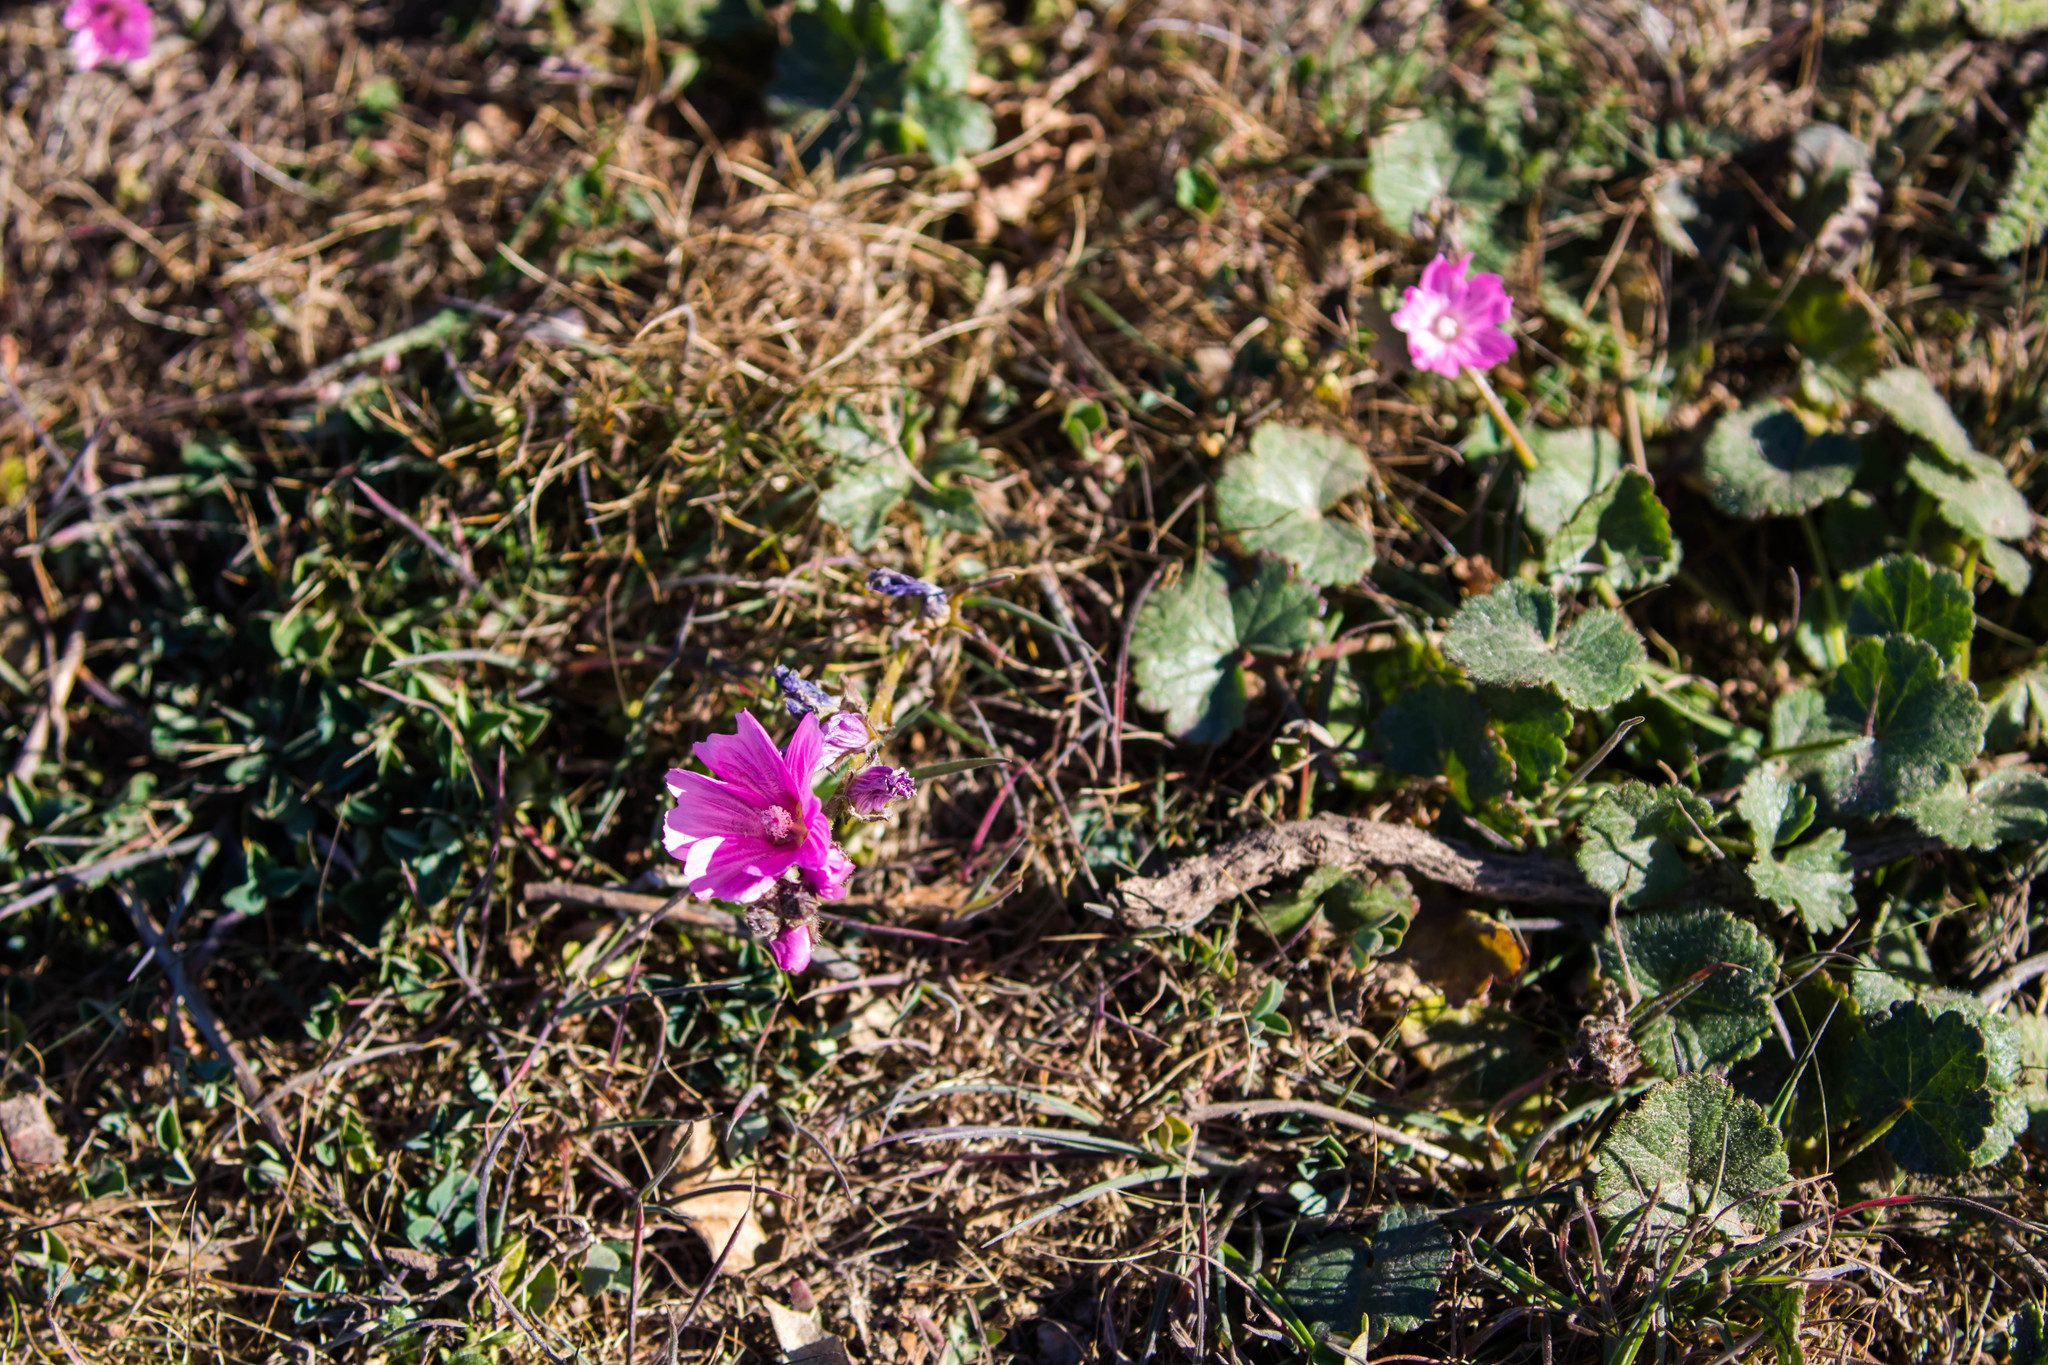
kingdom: Plantae
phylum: Tracheophyta
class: Magnoliopsida
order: Malvales
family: Malvaceae
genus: Sidalcea
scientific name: Sidalcea malviflora
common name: Greek mallow
